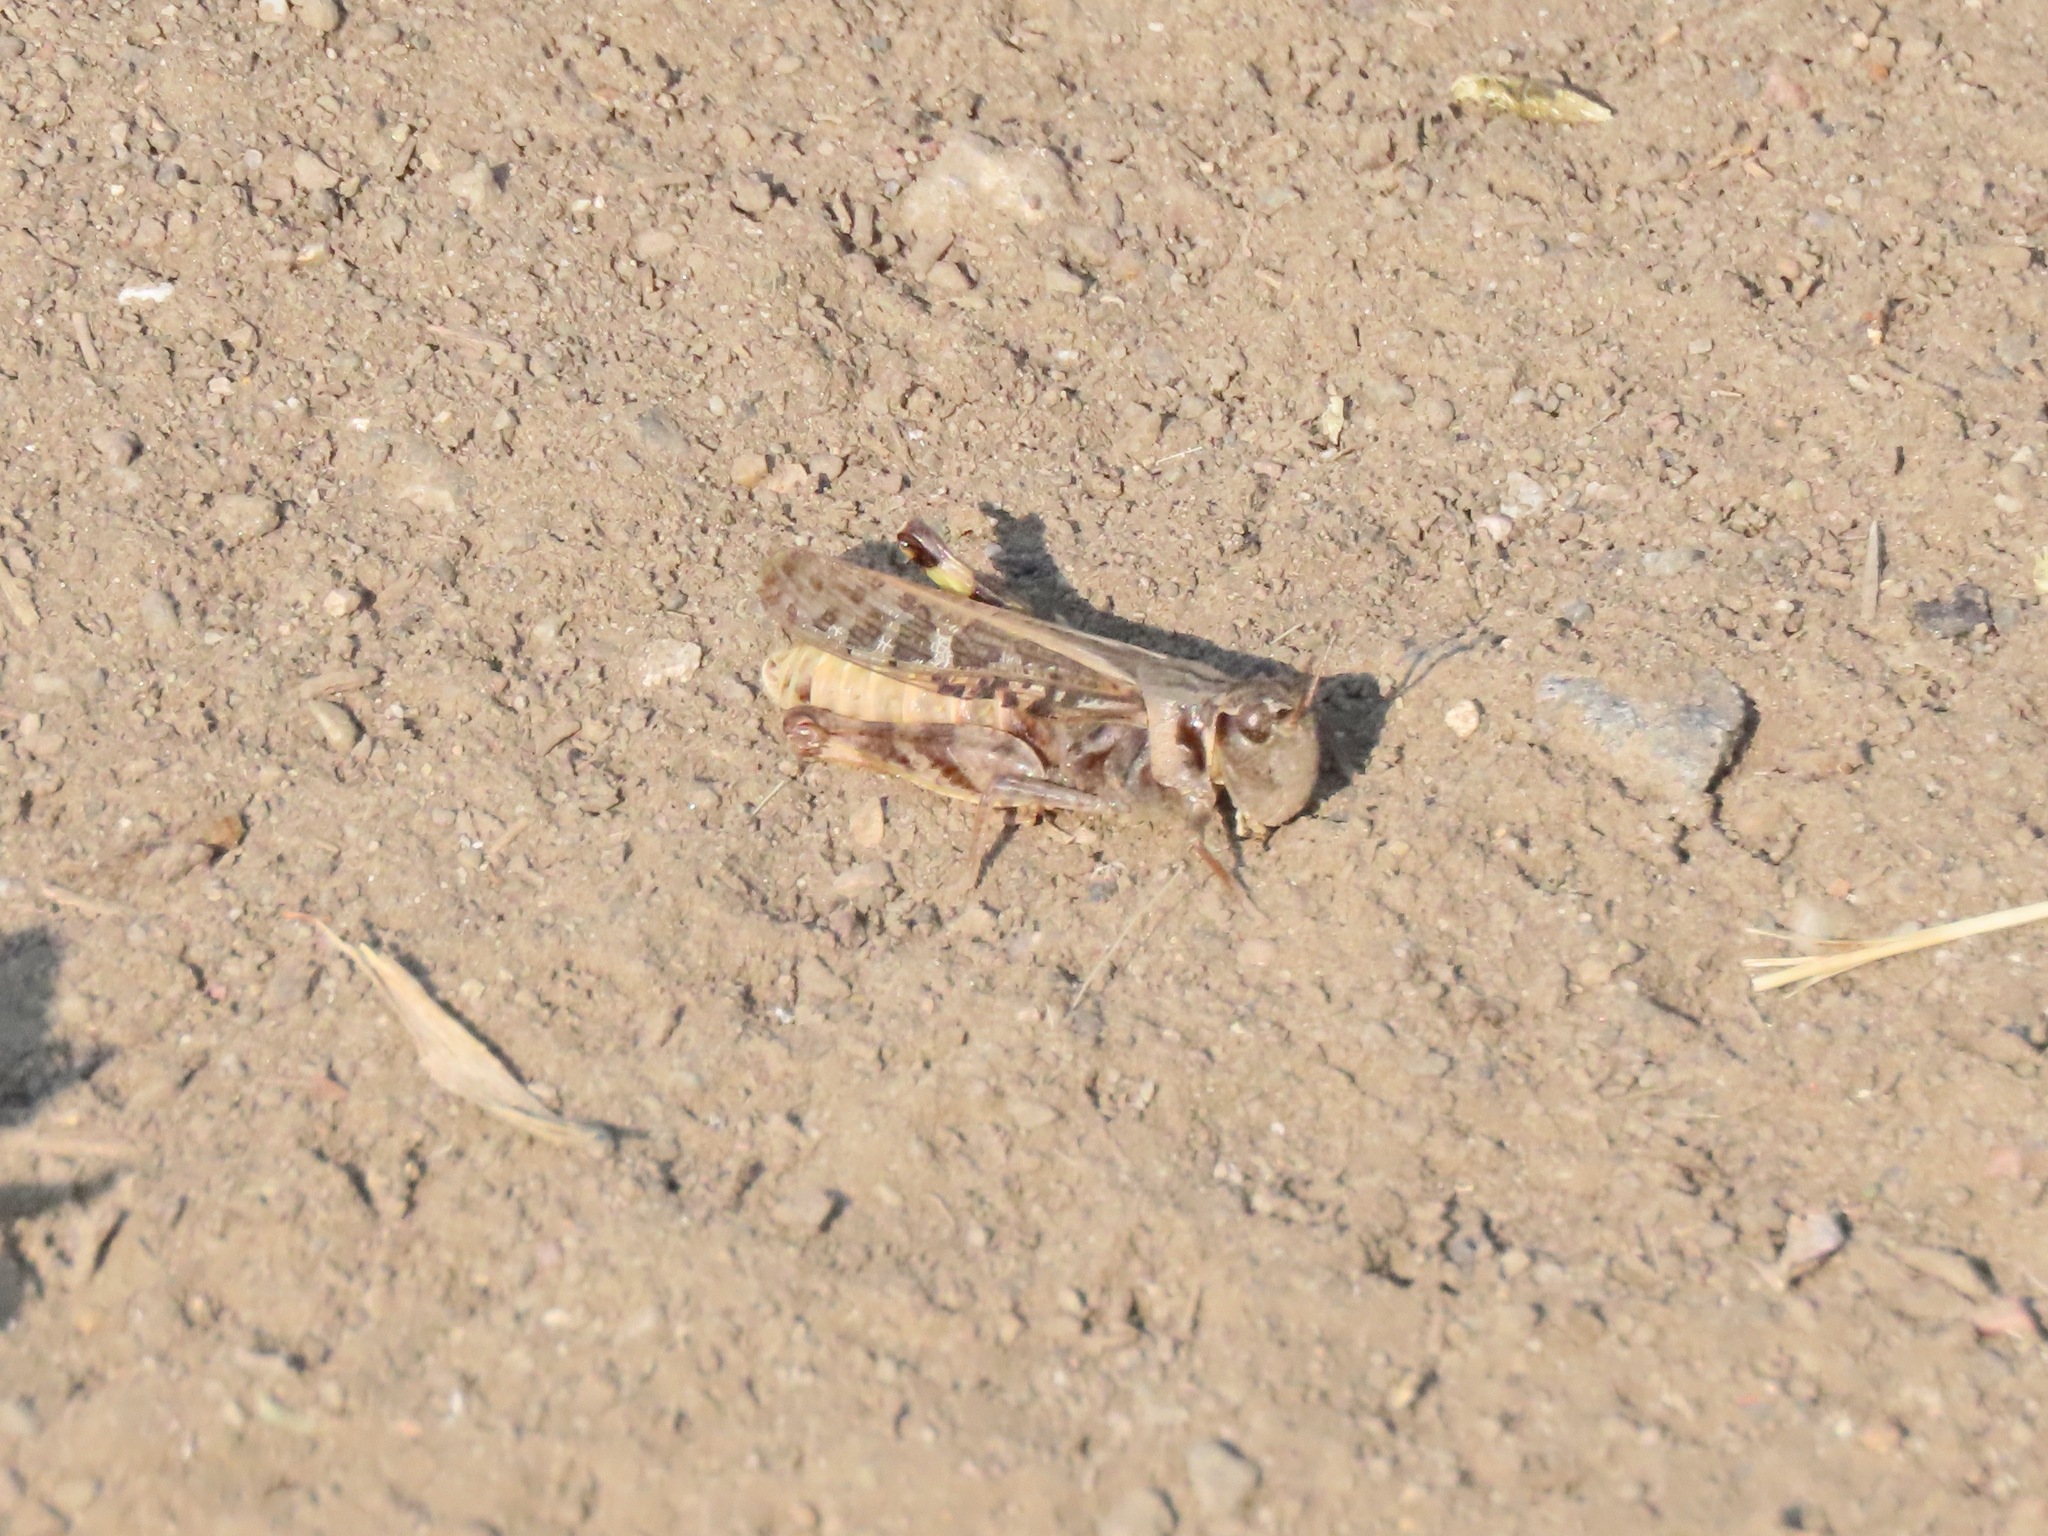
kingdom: Animalia
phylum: Arthropoda
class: Insecta
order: Orthoptera
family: Acrididae
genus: Camnula
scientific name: Camnula pellucida
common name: Clear-winged grasshopper
